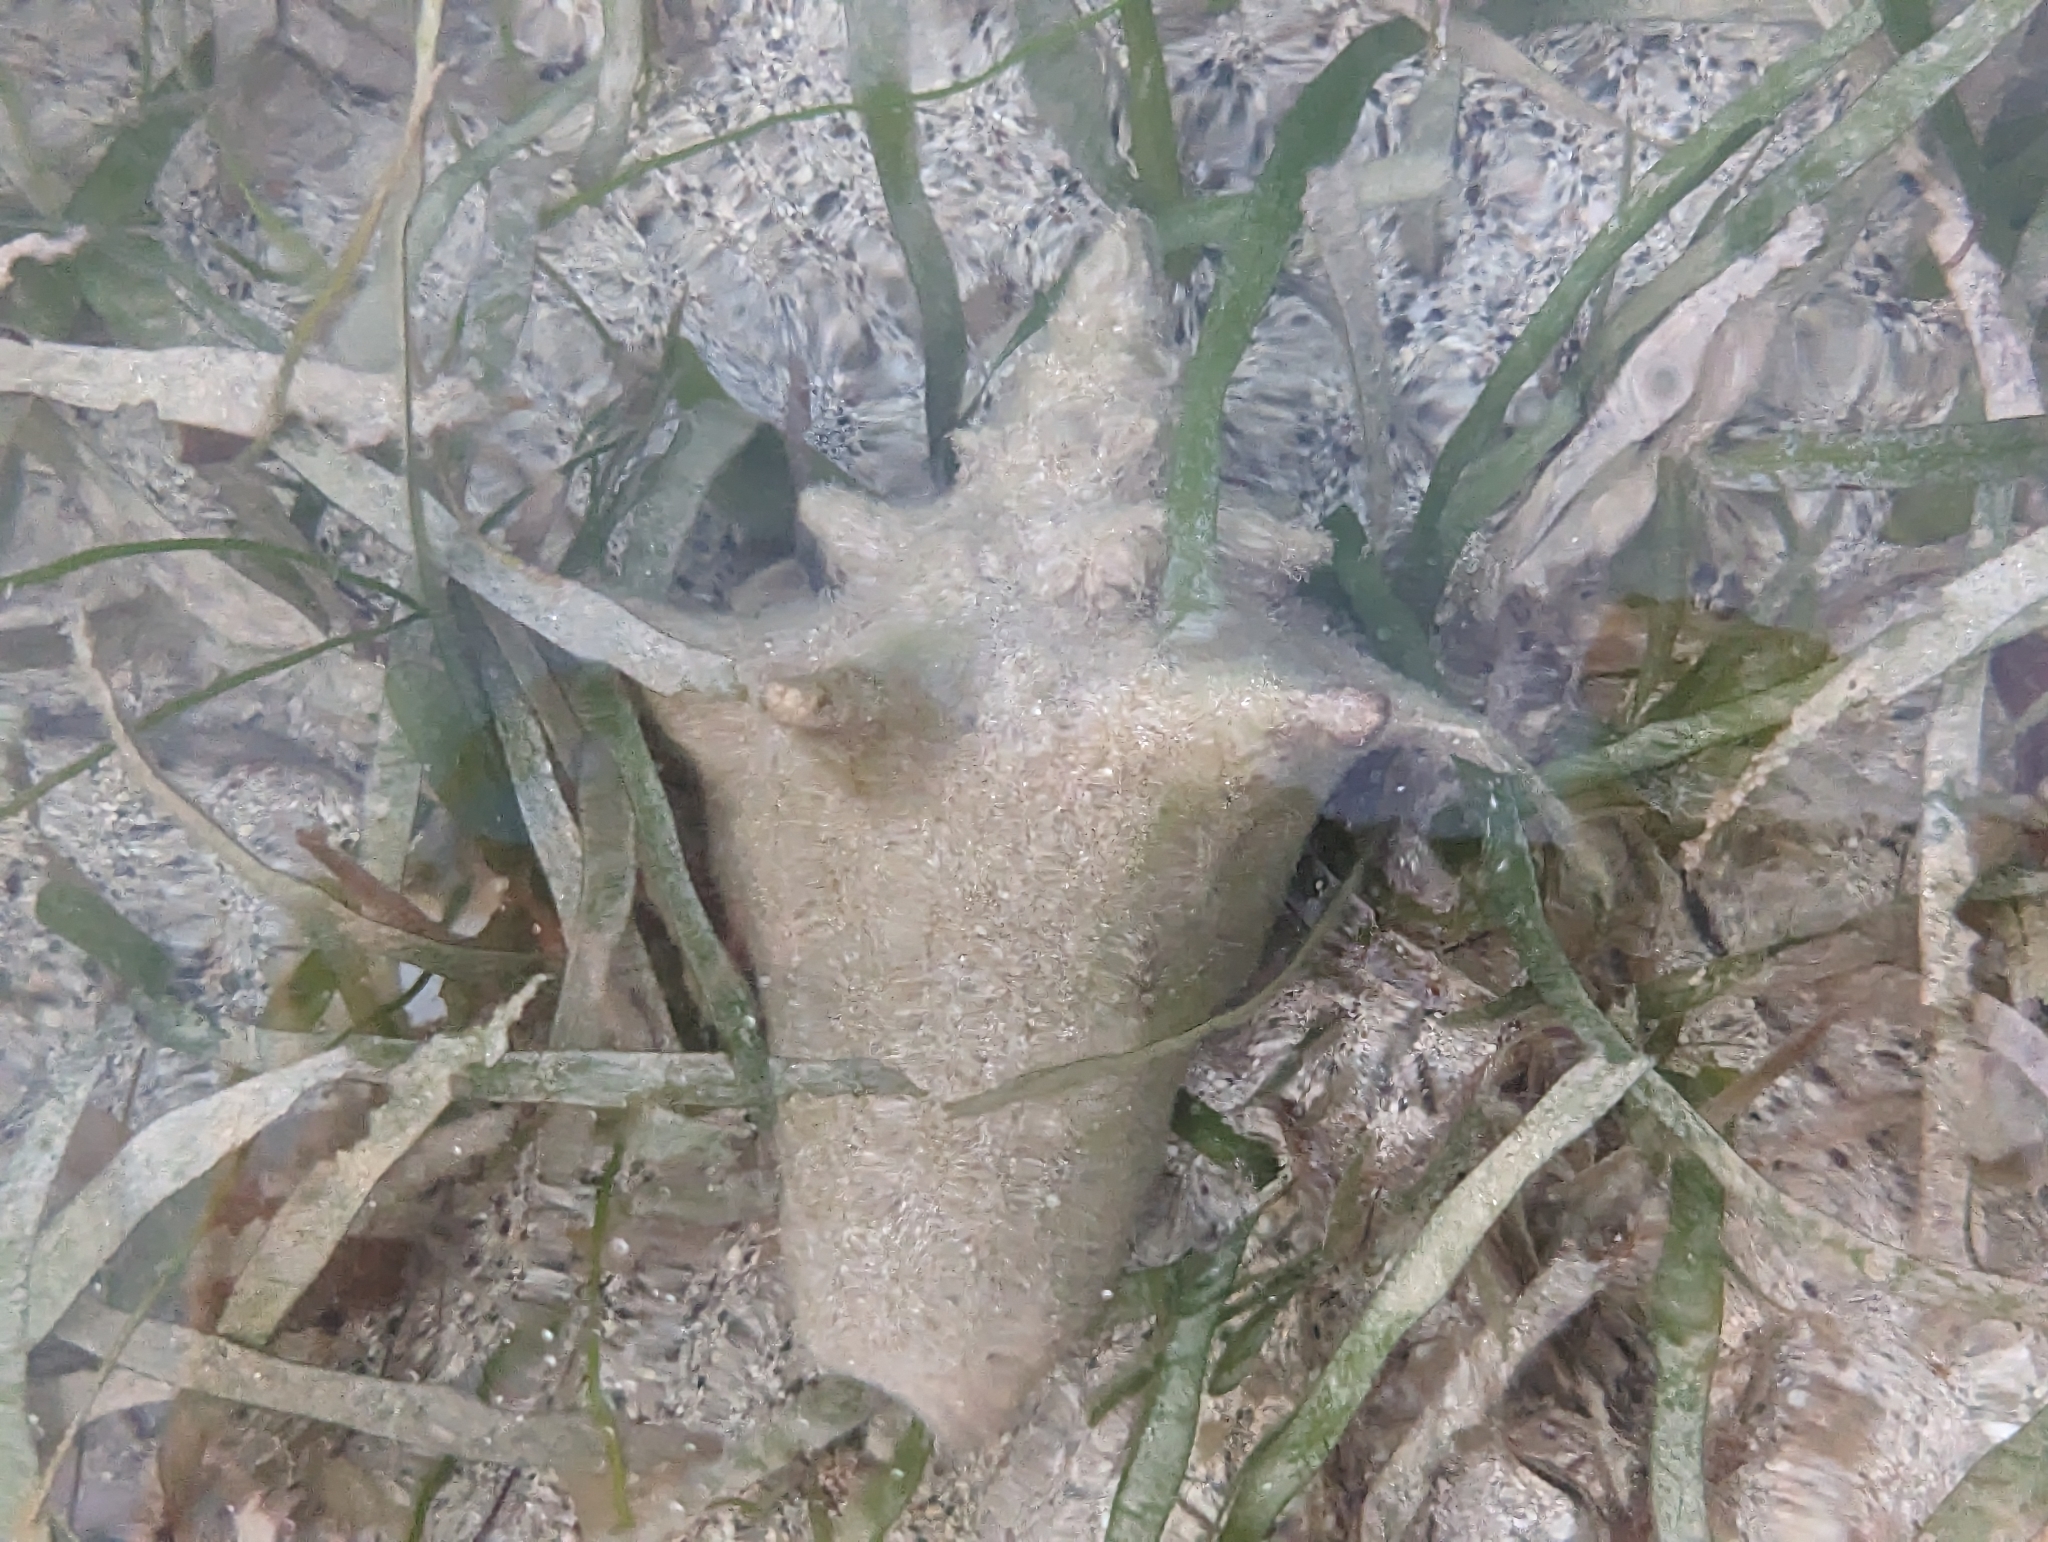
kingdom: Animalia
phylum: Mollusca
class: Gastropoda
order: Littorinimorpha
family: Strombidae
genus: Aliger
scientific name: Aliger gigas
